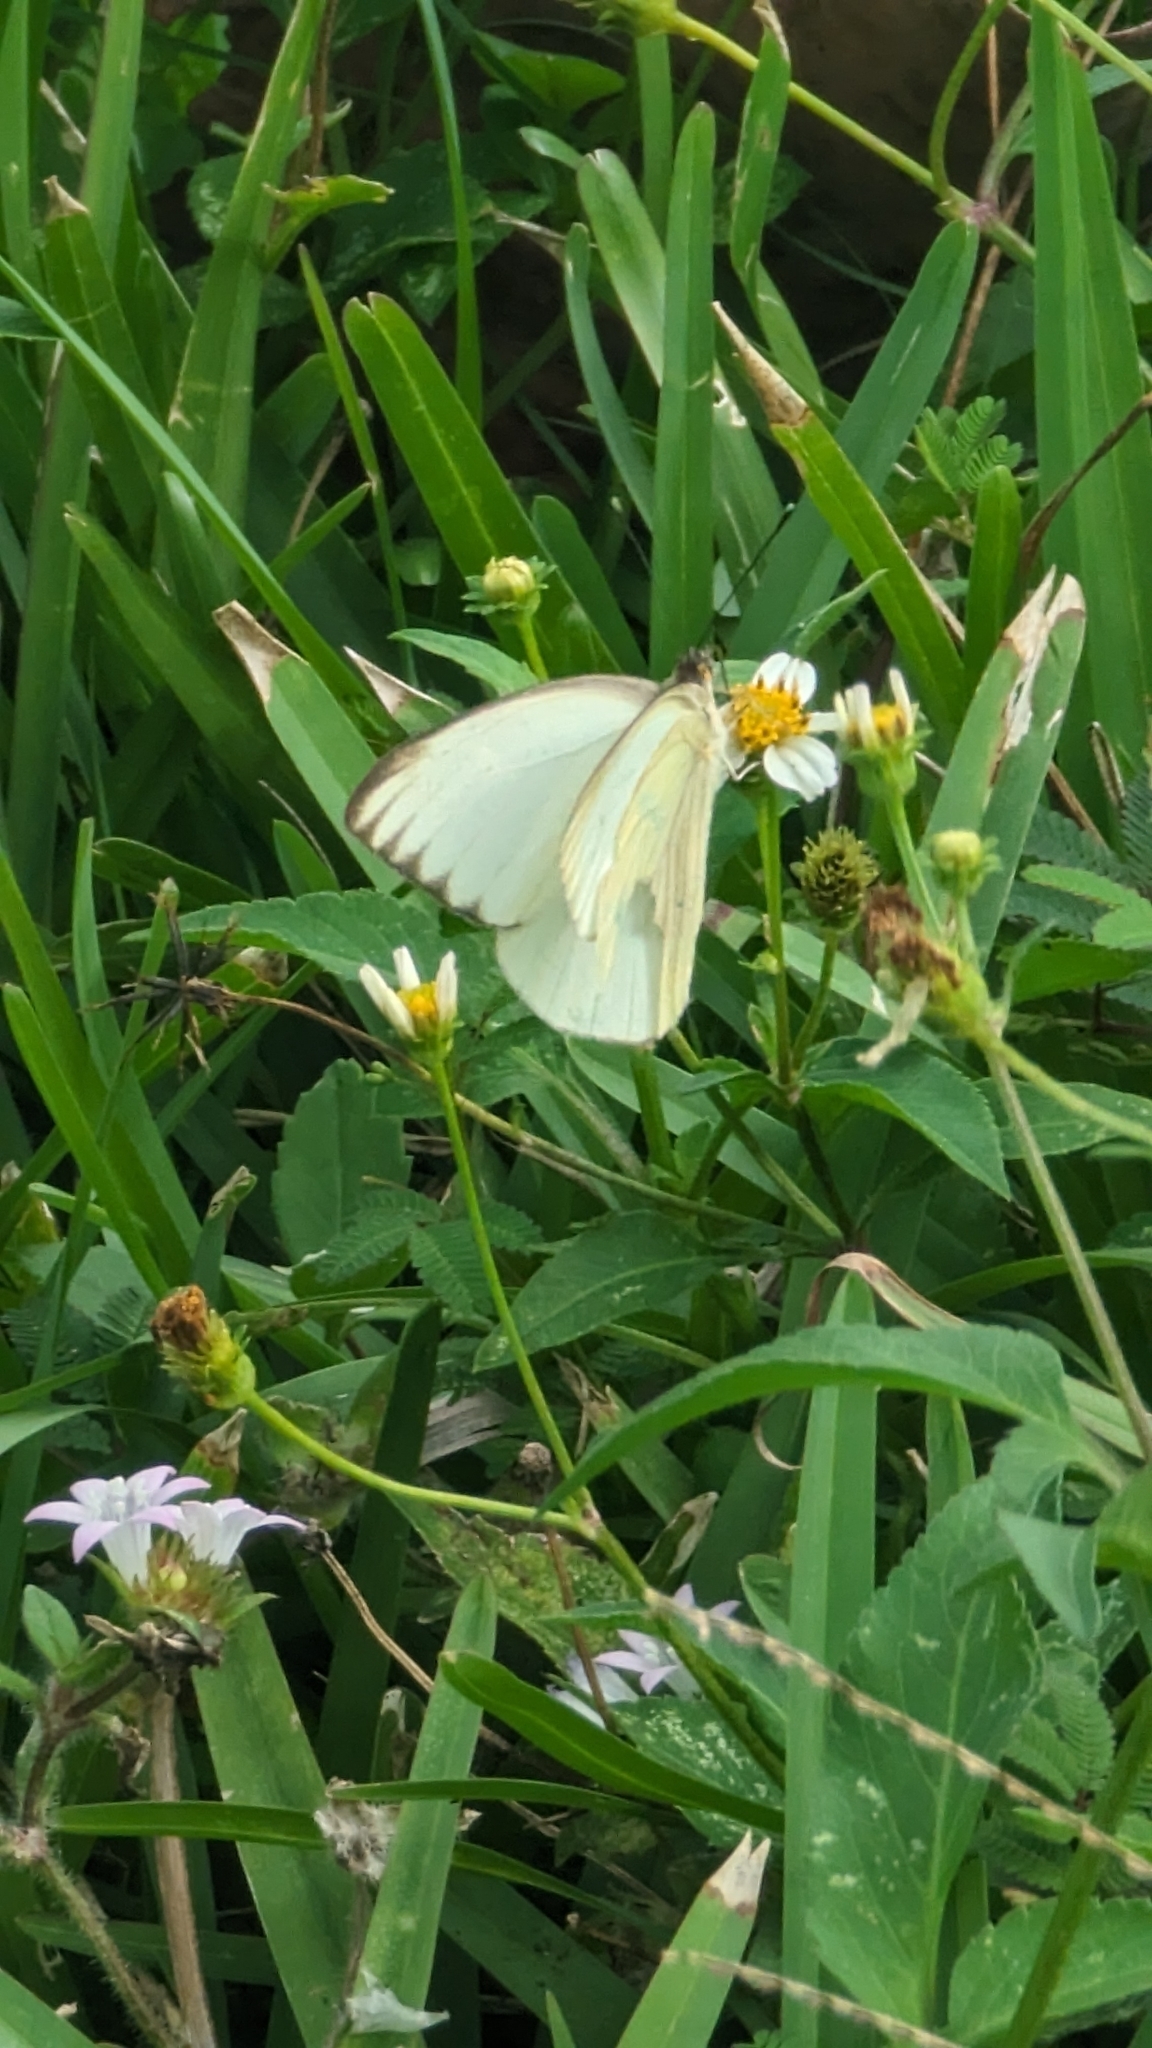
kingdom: Animalia
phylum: Arthropoda
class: Insecta
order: Lepidoptera
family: Pieridae
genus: Ascia
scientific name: Ascia monuste
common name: Great southern white
